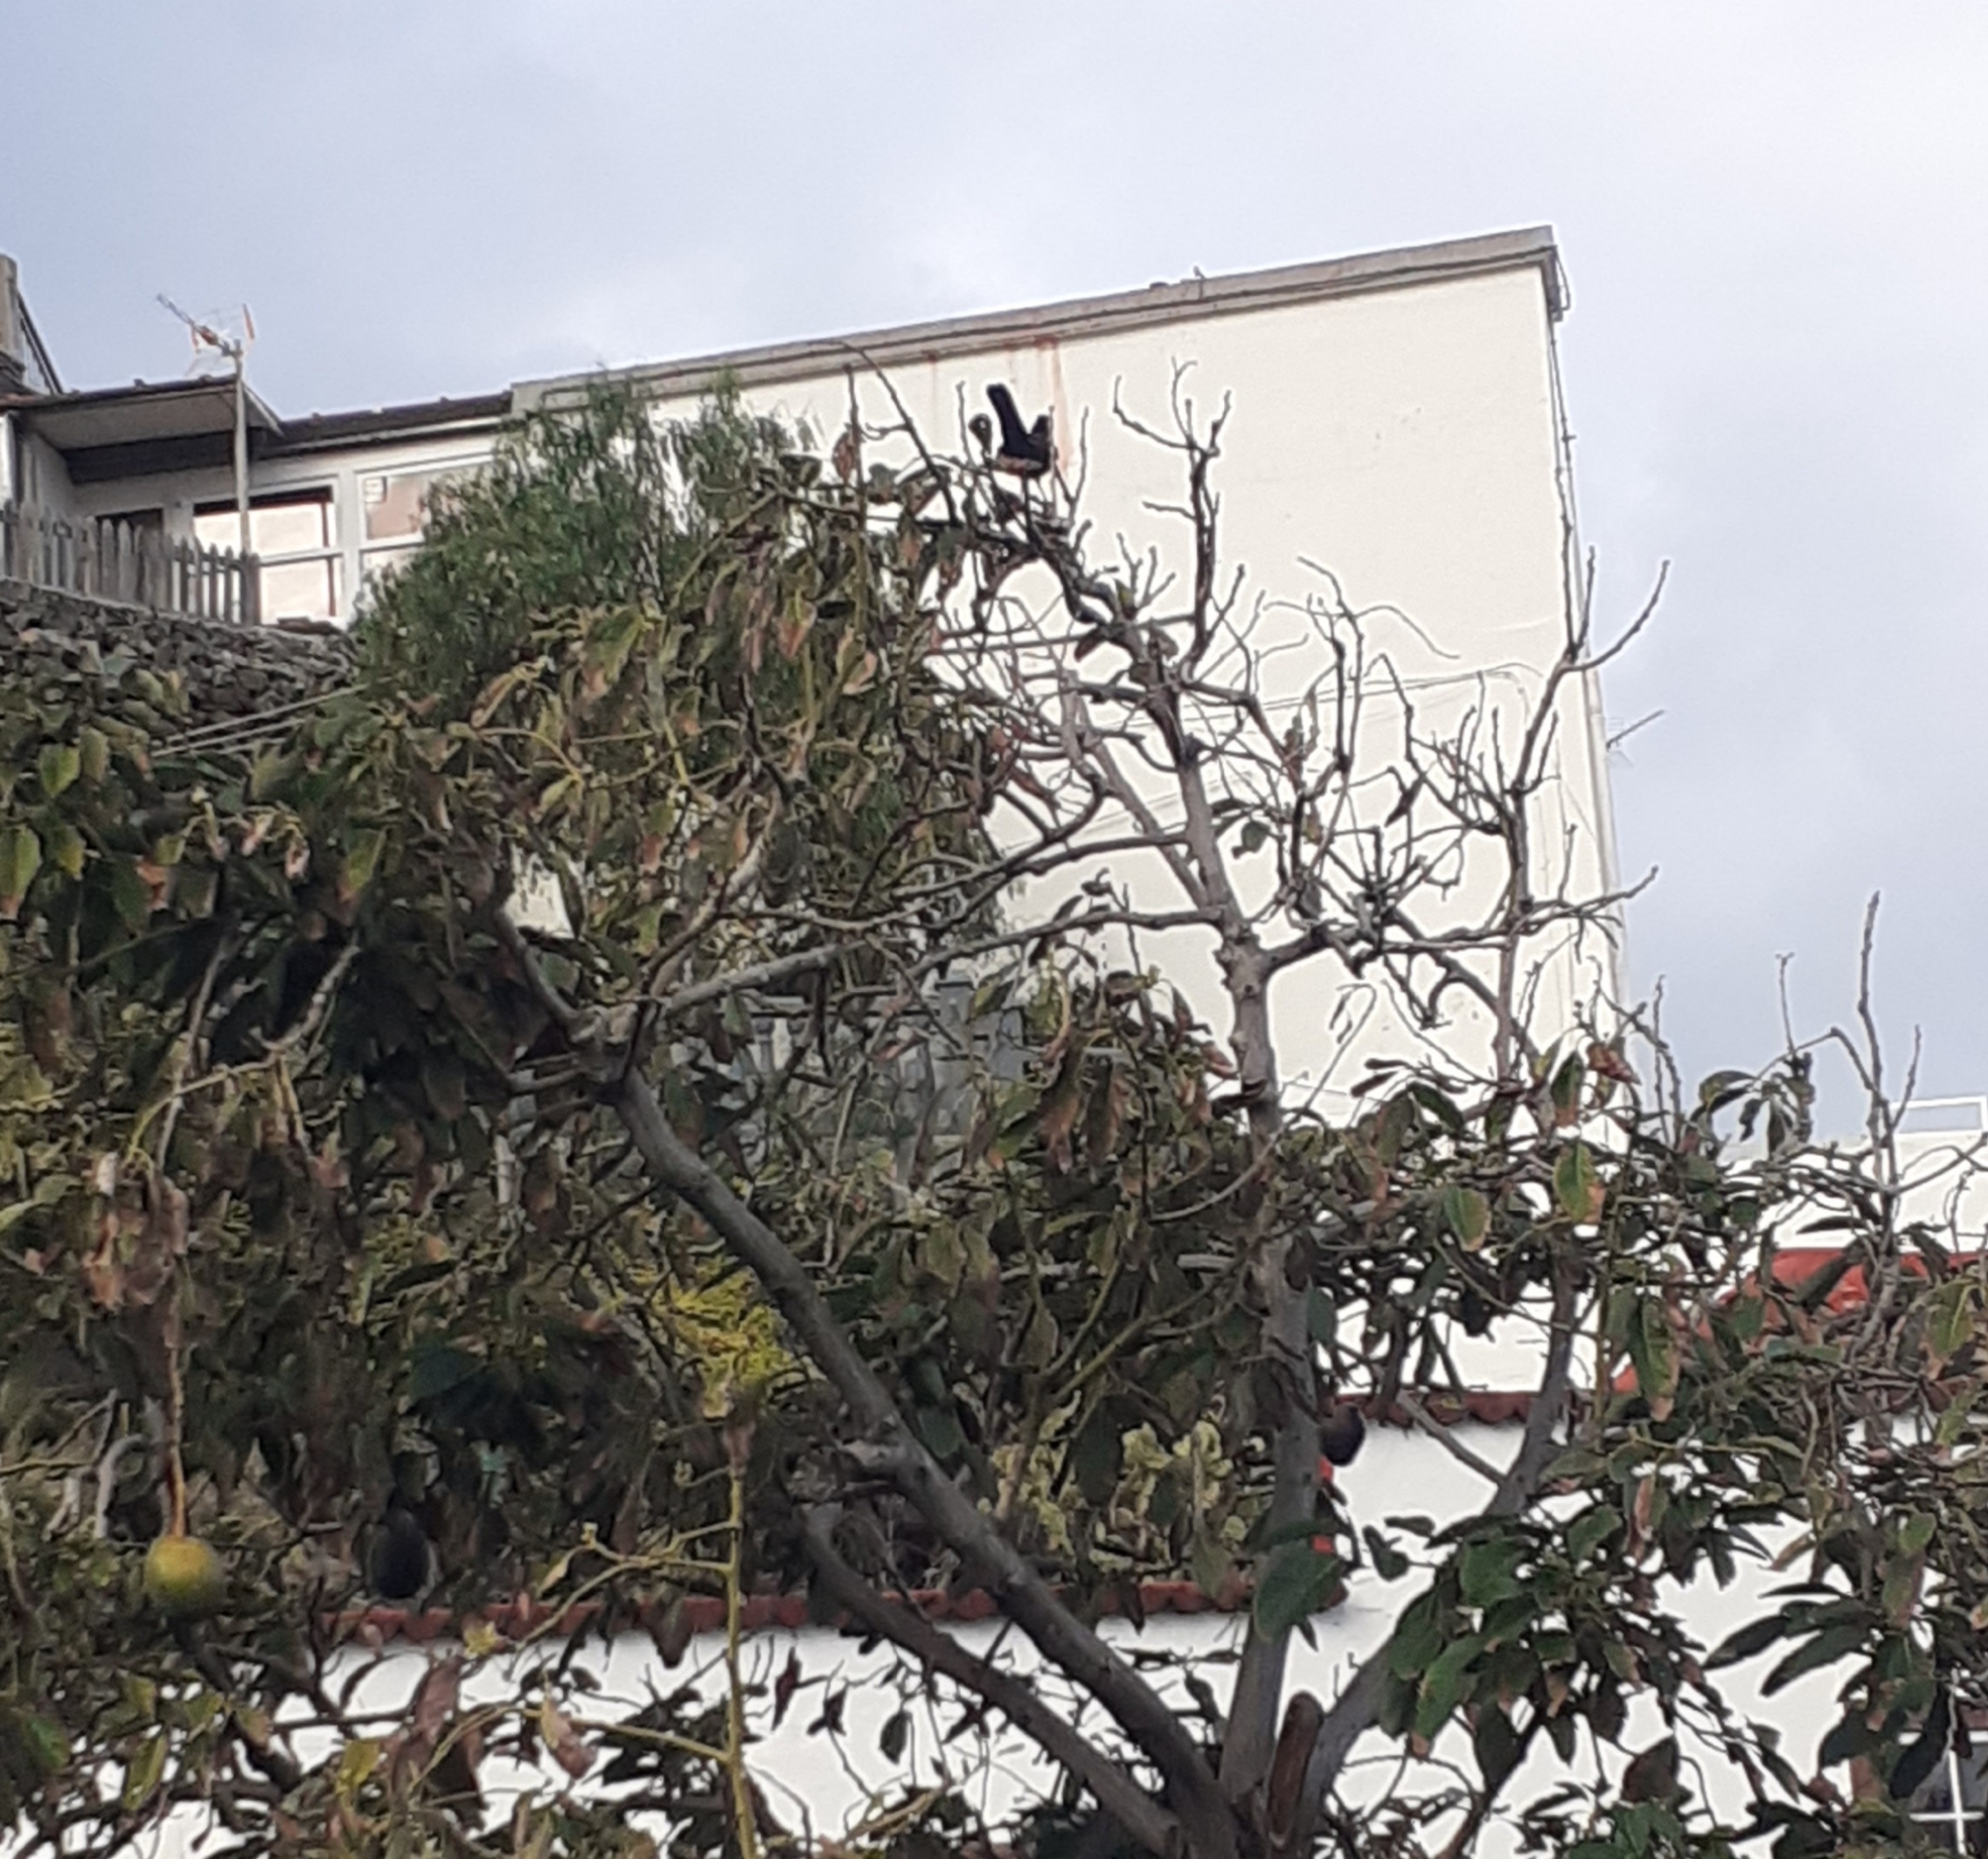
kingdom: Animalia
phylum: Chordata
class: Aves
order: Passeriformes
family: Turdidae
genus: Turdus
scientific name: Turdus merula
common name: Common blackbird
